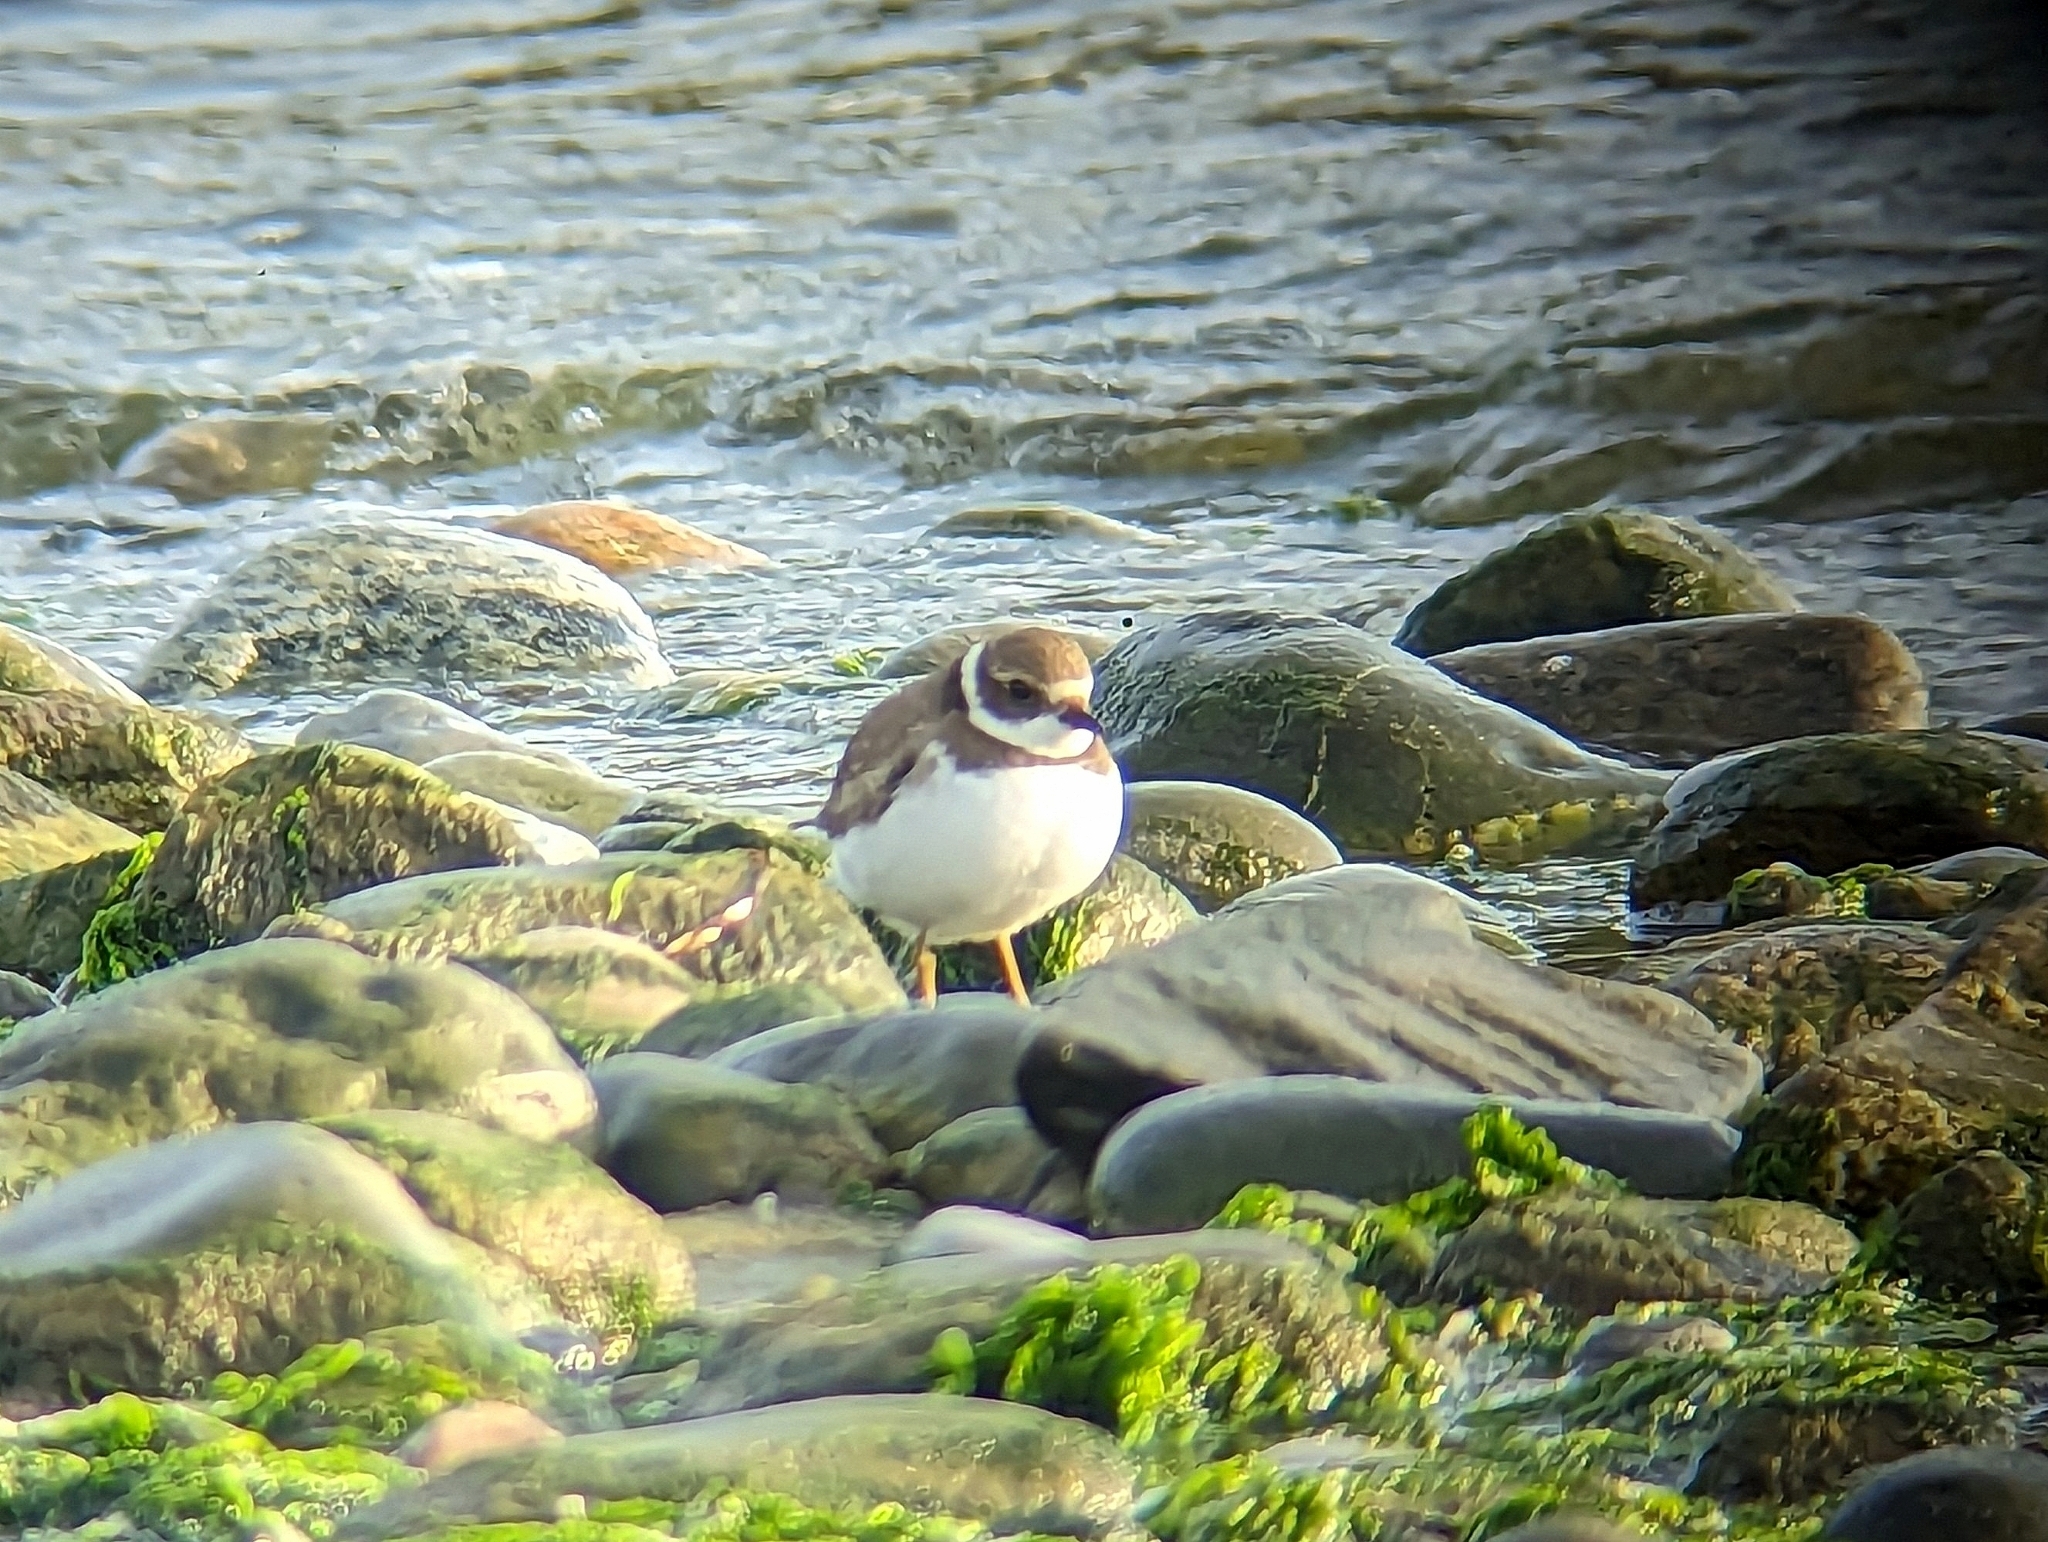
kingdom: Animalia
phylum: Chordata
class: Aves
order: Charadriiformes
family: Charadriidae
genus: Charadrius
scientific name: Charadrius semipalmatus
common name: Semipalmated plover
